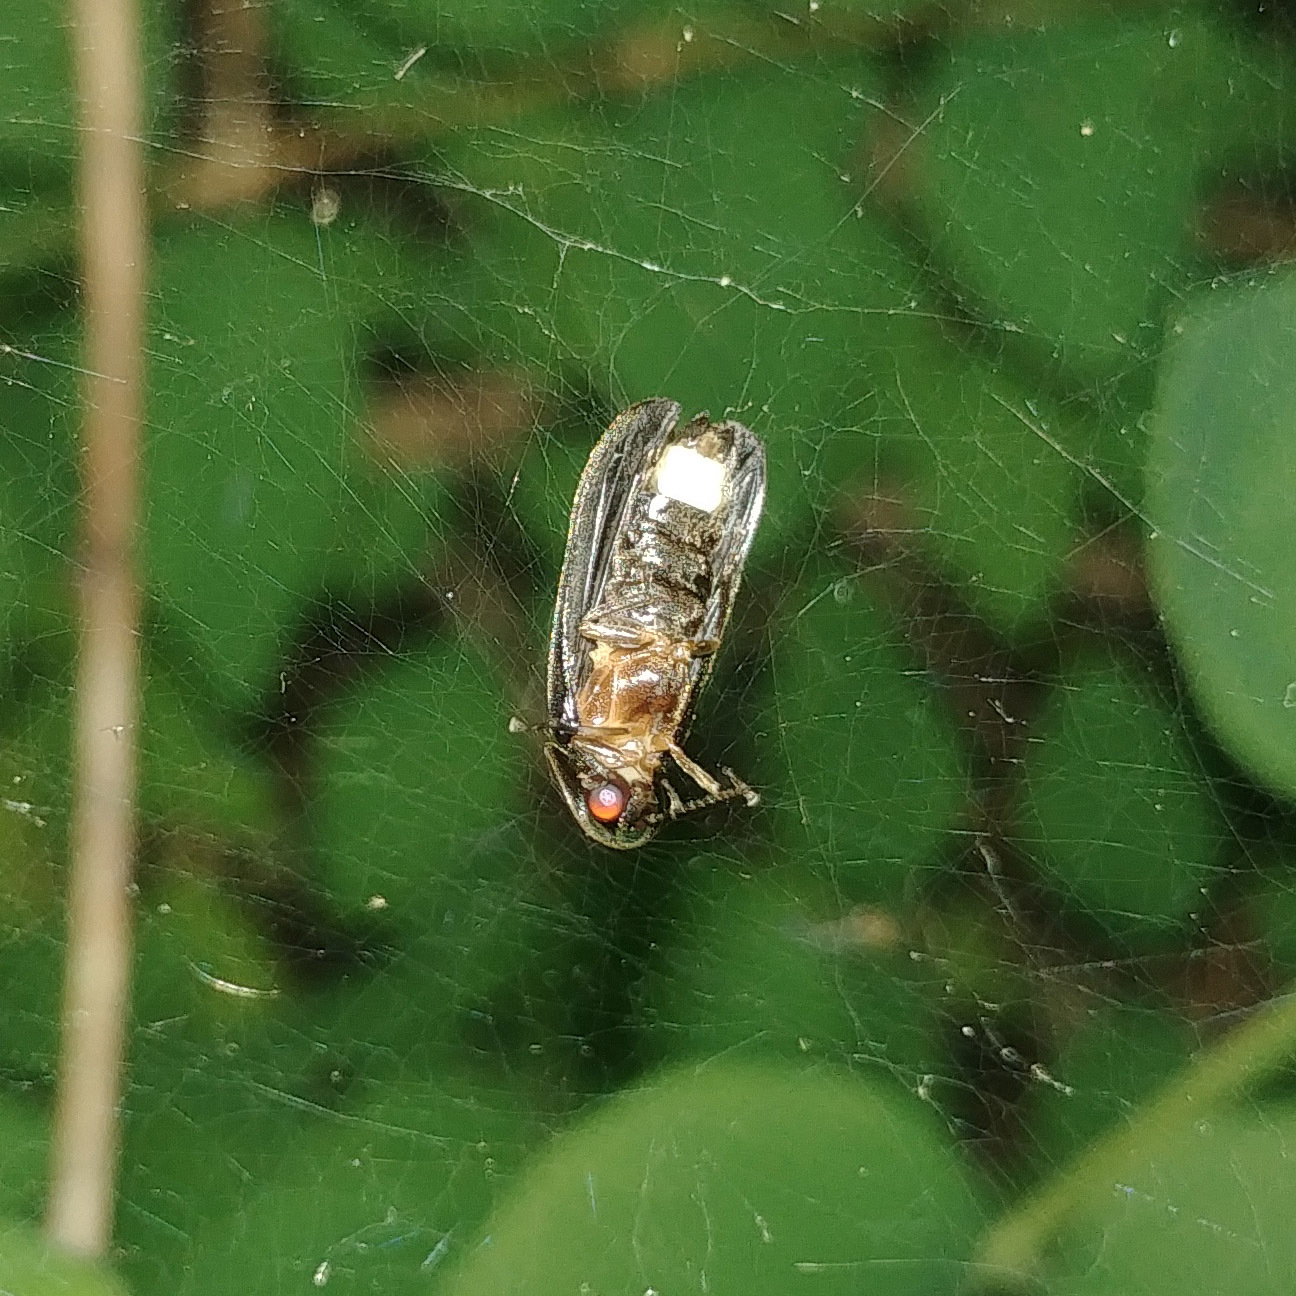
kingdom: Animalia
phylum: Arthropoda
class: Insecta
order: Coleoptera
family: Lampyridae
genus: Lamprohiza
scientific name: Lamprohiza splendidula
